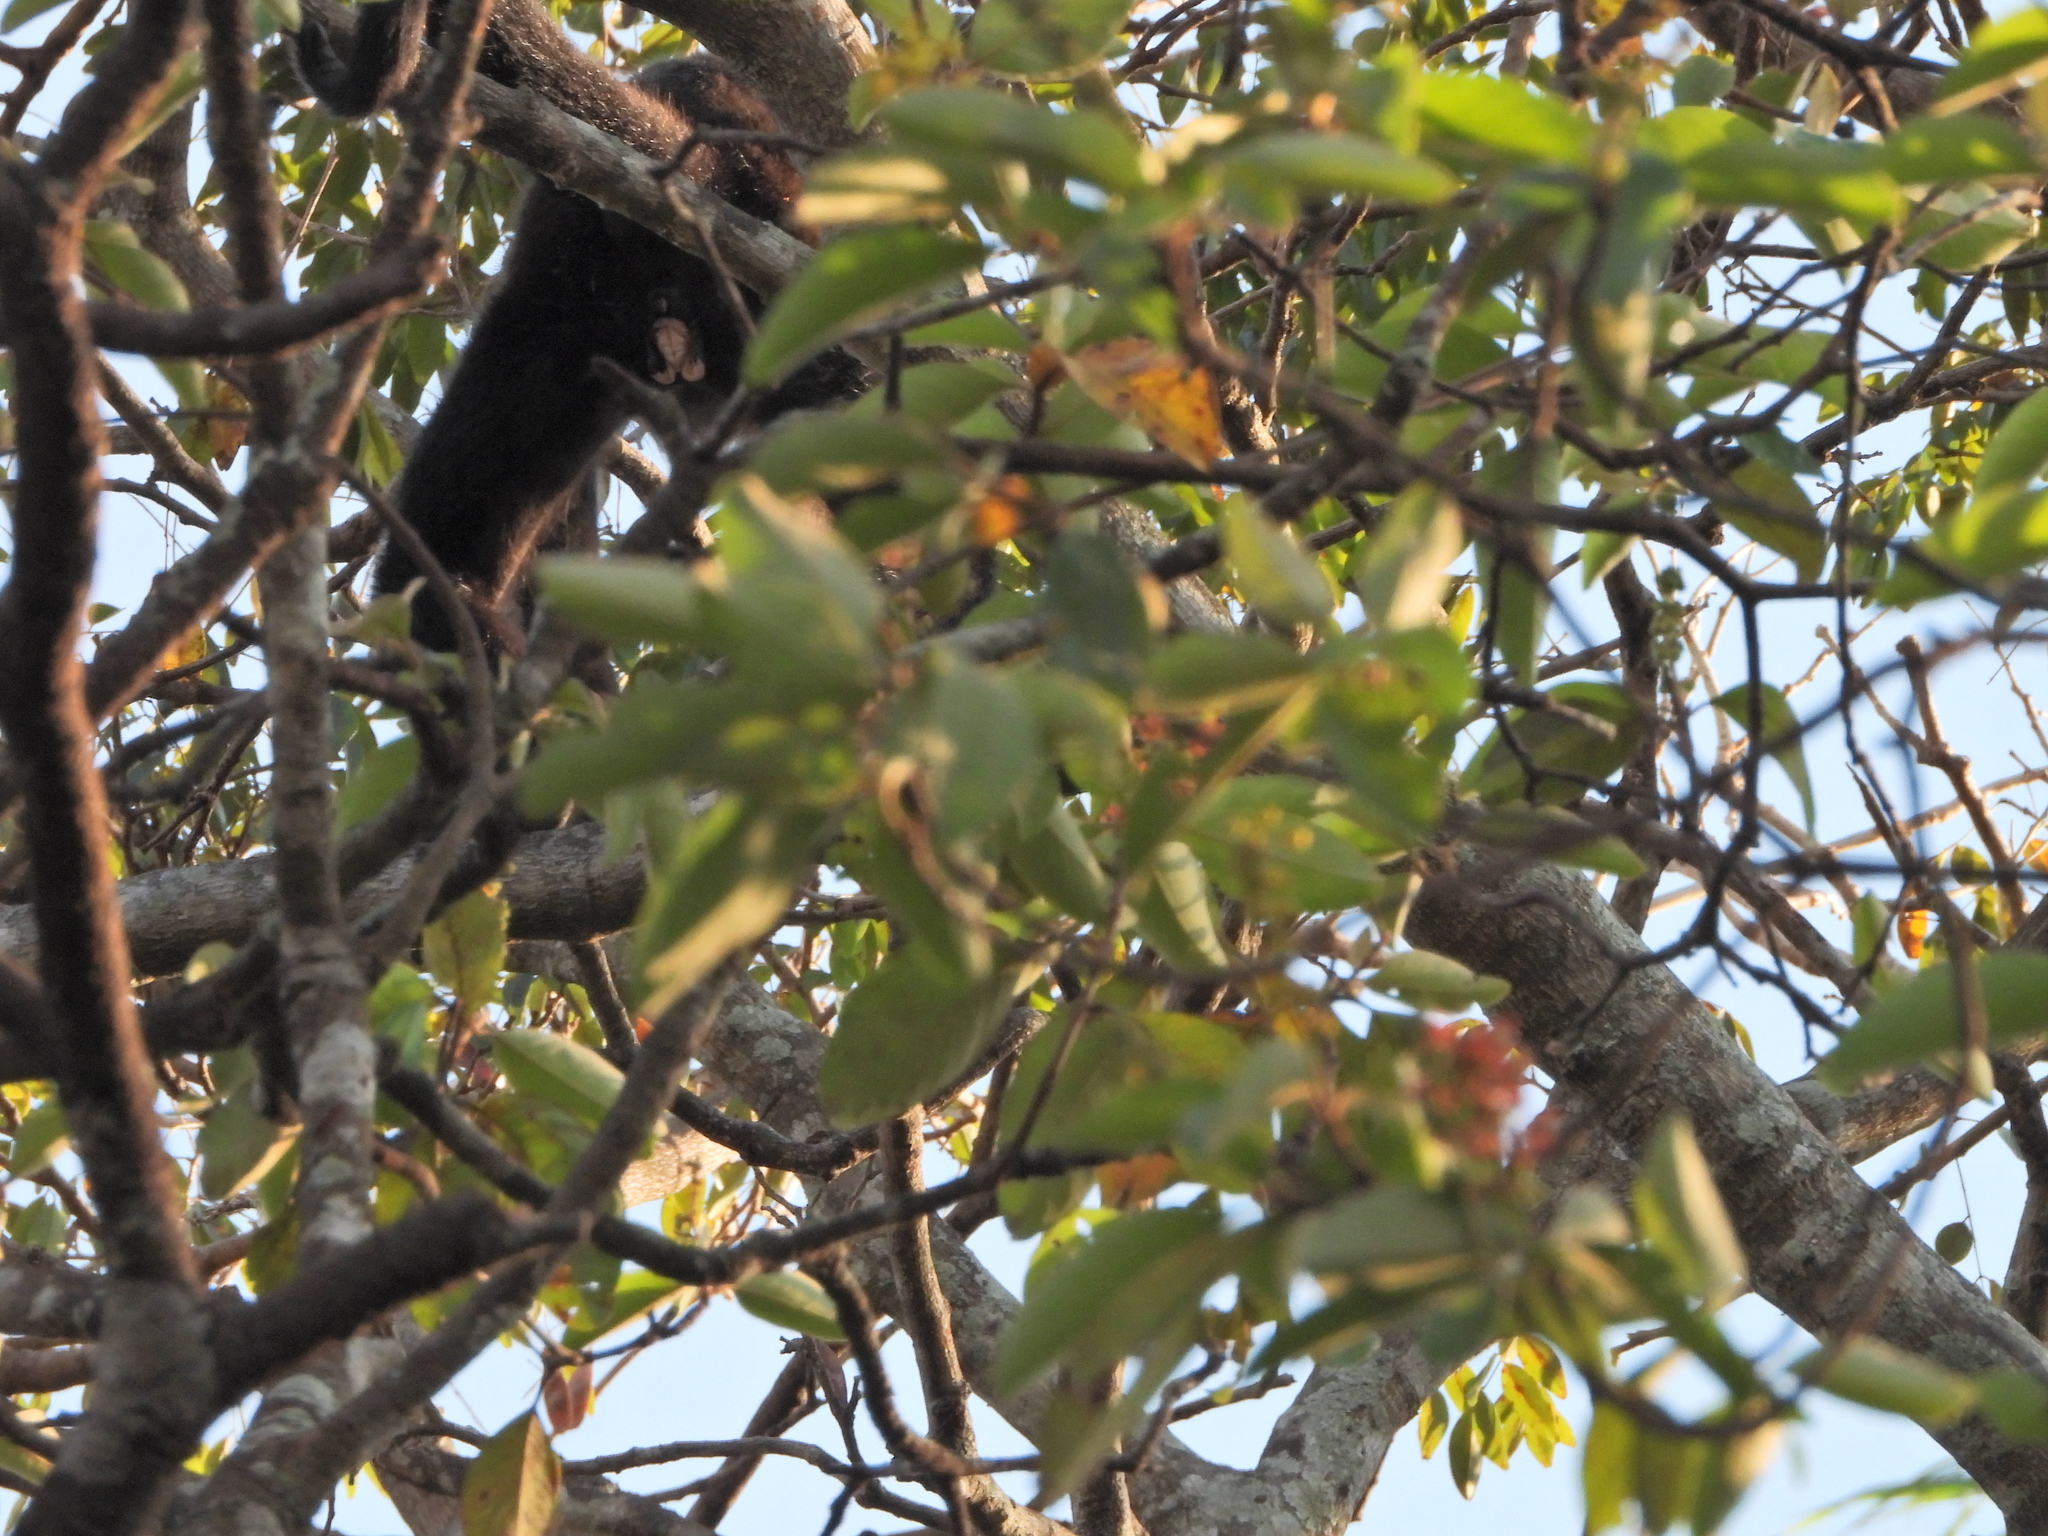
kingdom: Animalia
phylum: Chordata
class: Mammalia
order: Primates
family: Atelidae
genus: Alouatta
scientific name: Alouatta palliata
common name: Mantled howler
